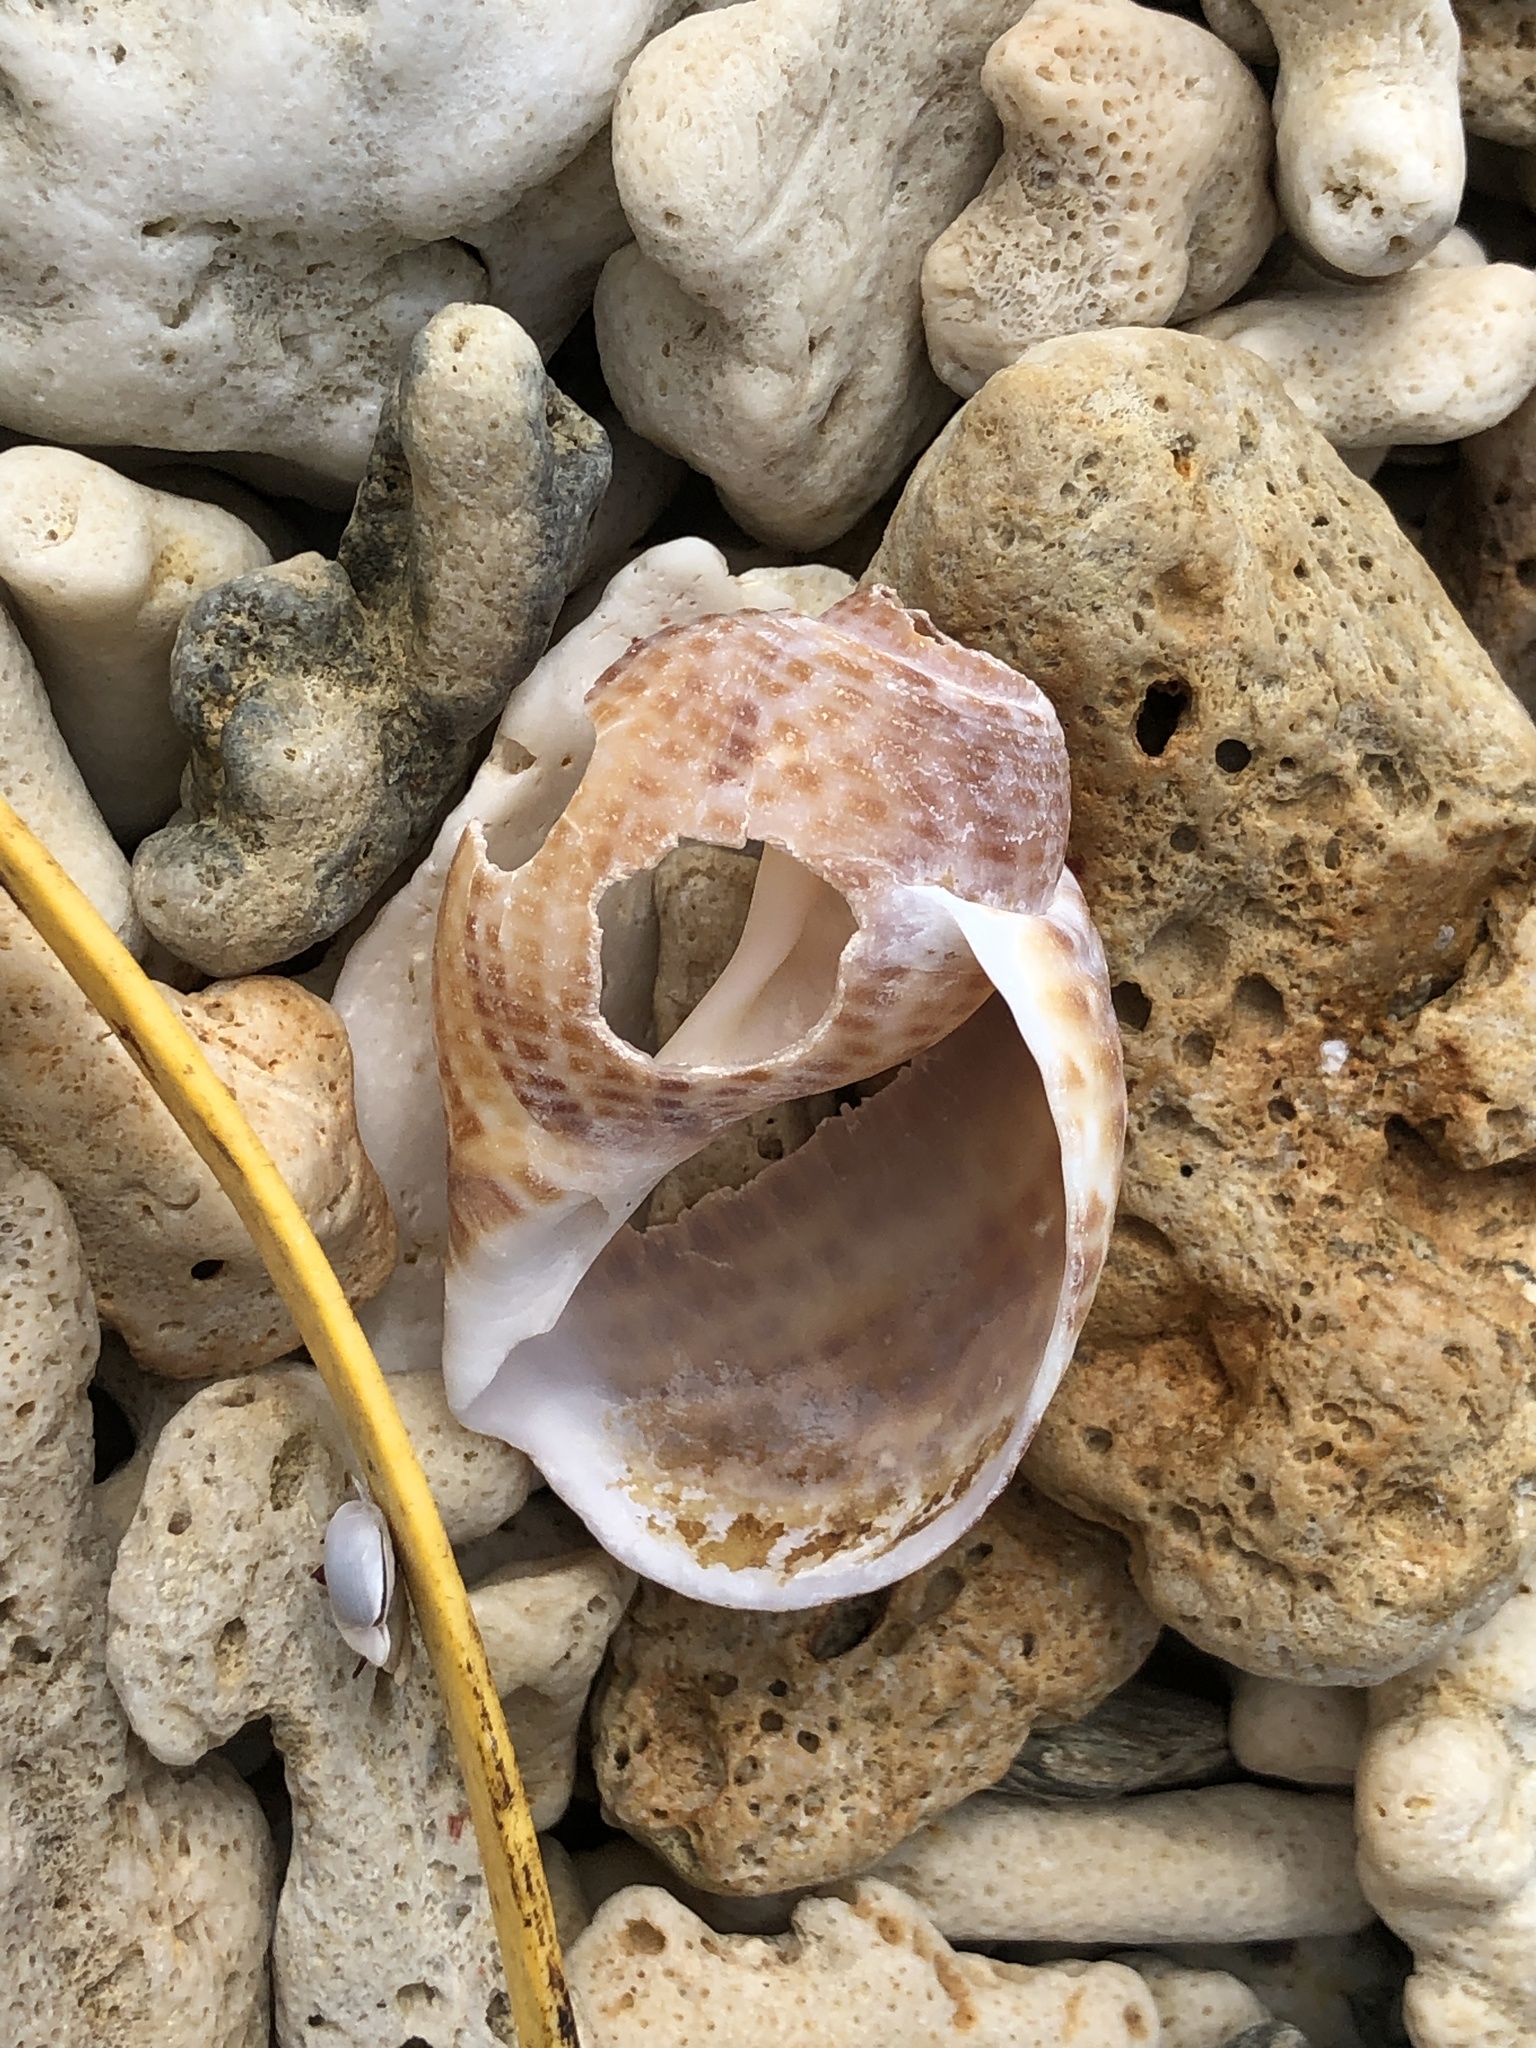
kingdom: Animalia
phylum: Mollusca
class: Gastropoda
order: Littorinimorpha
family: Tonnidae
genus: Tonna
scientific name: Tonna perdix
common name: Pacific partridge tun
